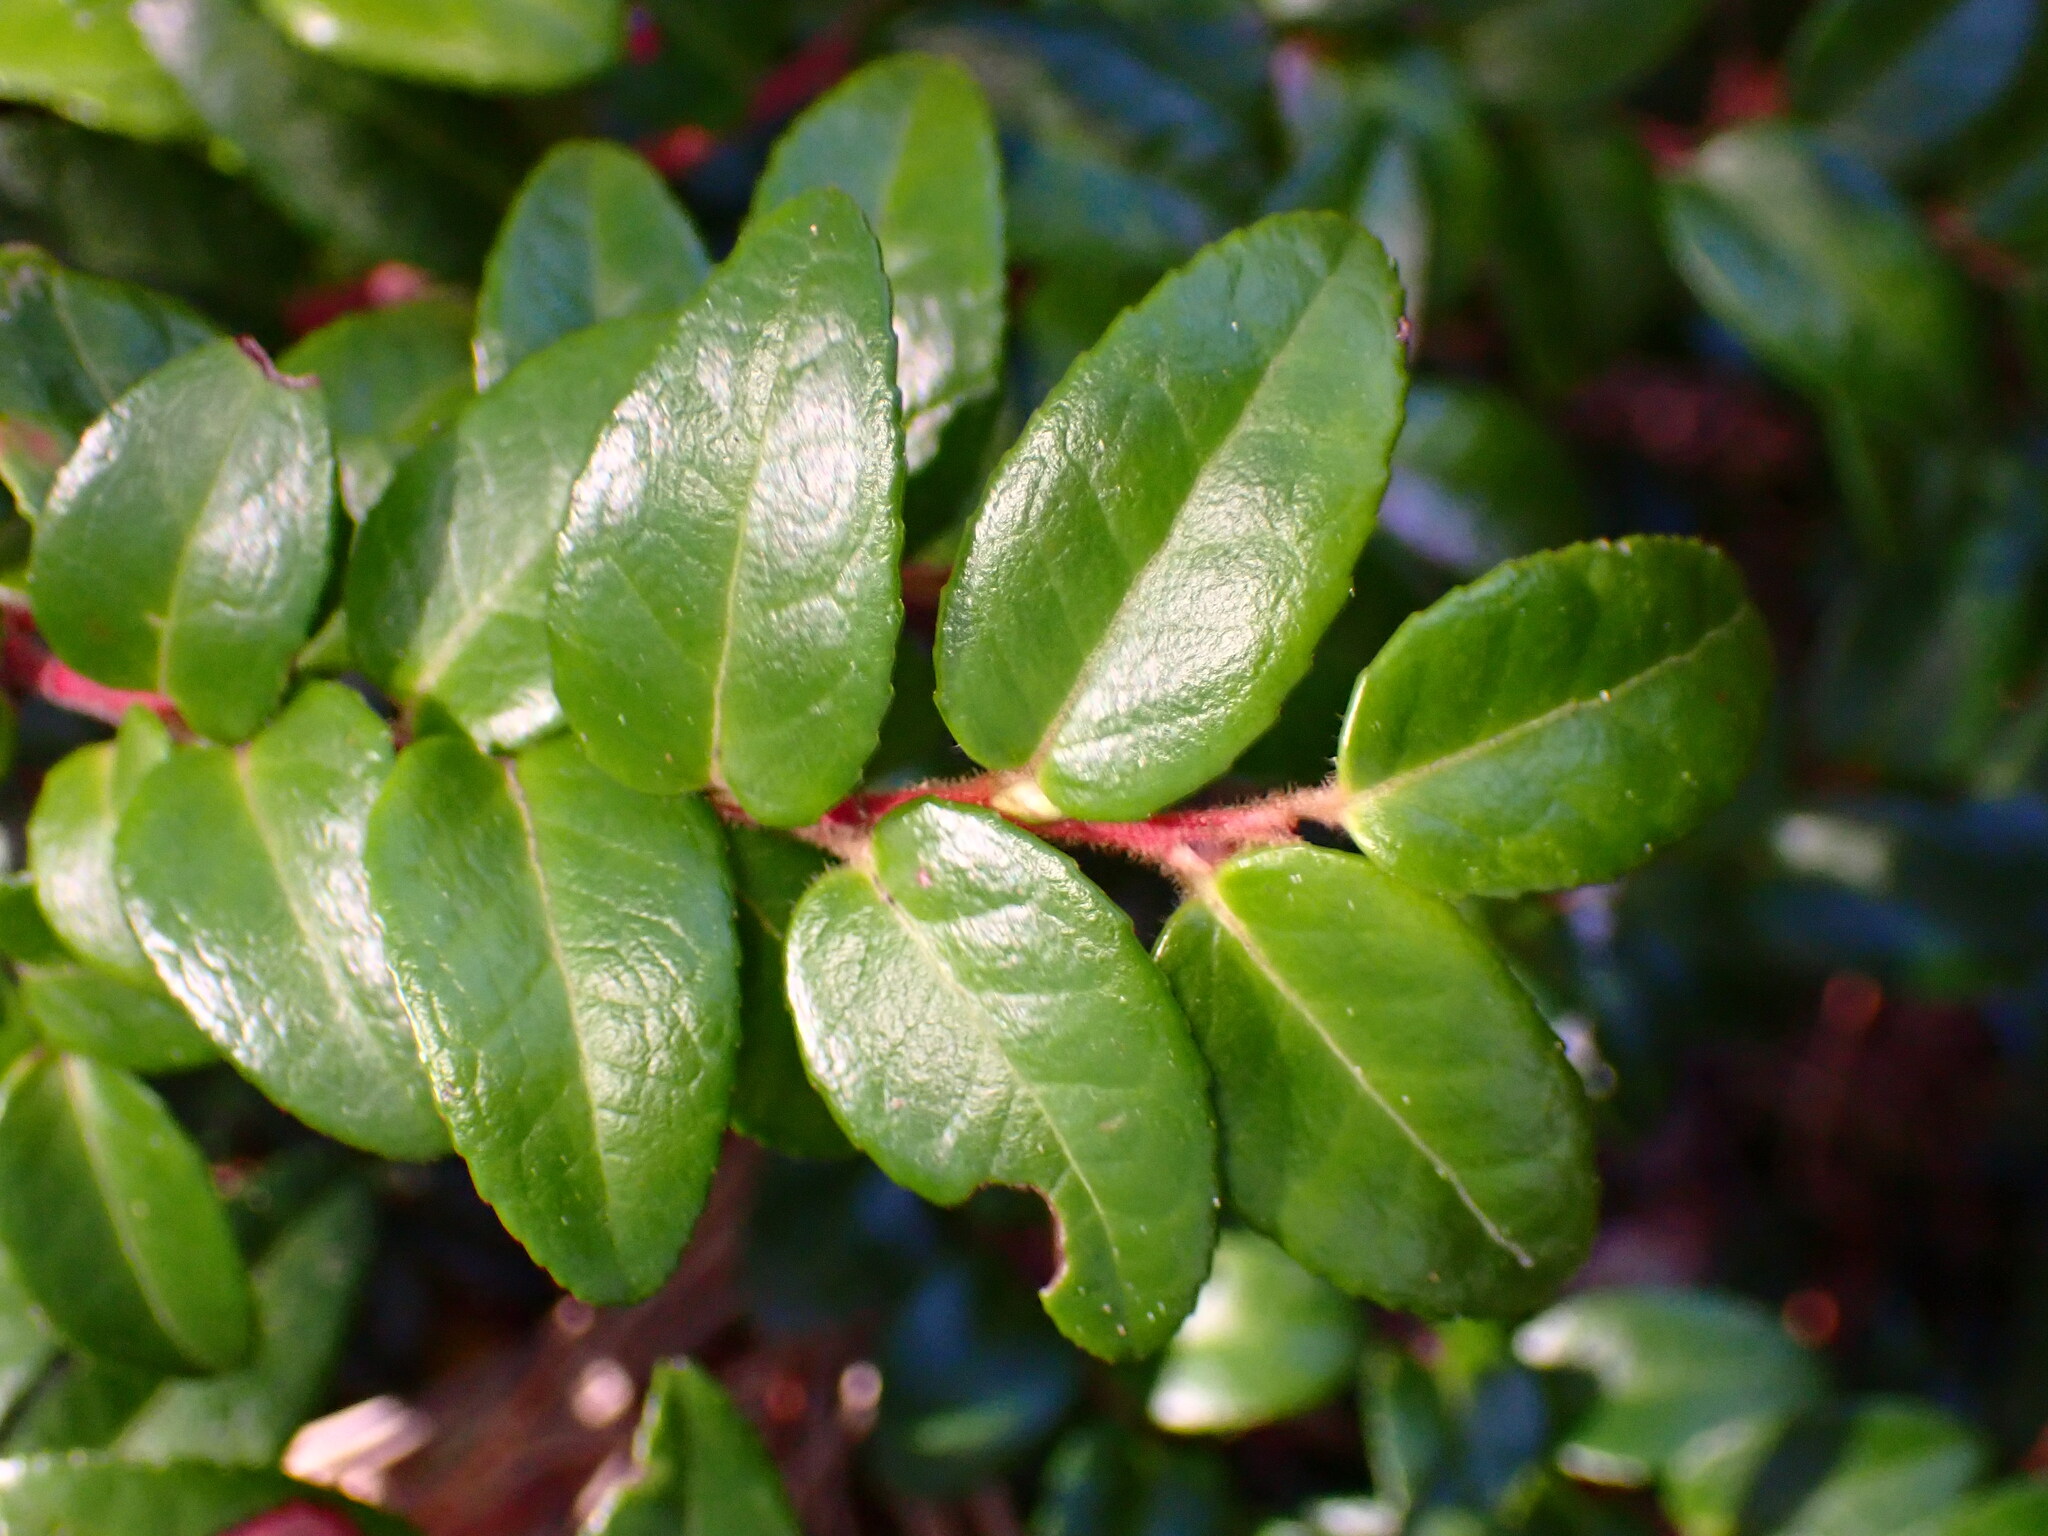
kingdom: Plantae
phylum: Tracheophyta
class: Magnoliopsida
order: Ericales
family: Ericaceae
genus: Vaccinium
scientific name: Vaccinium ovatum
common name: California-huckleberry
